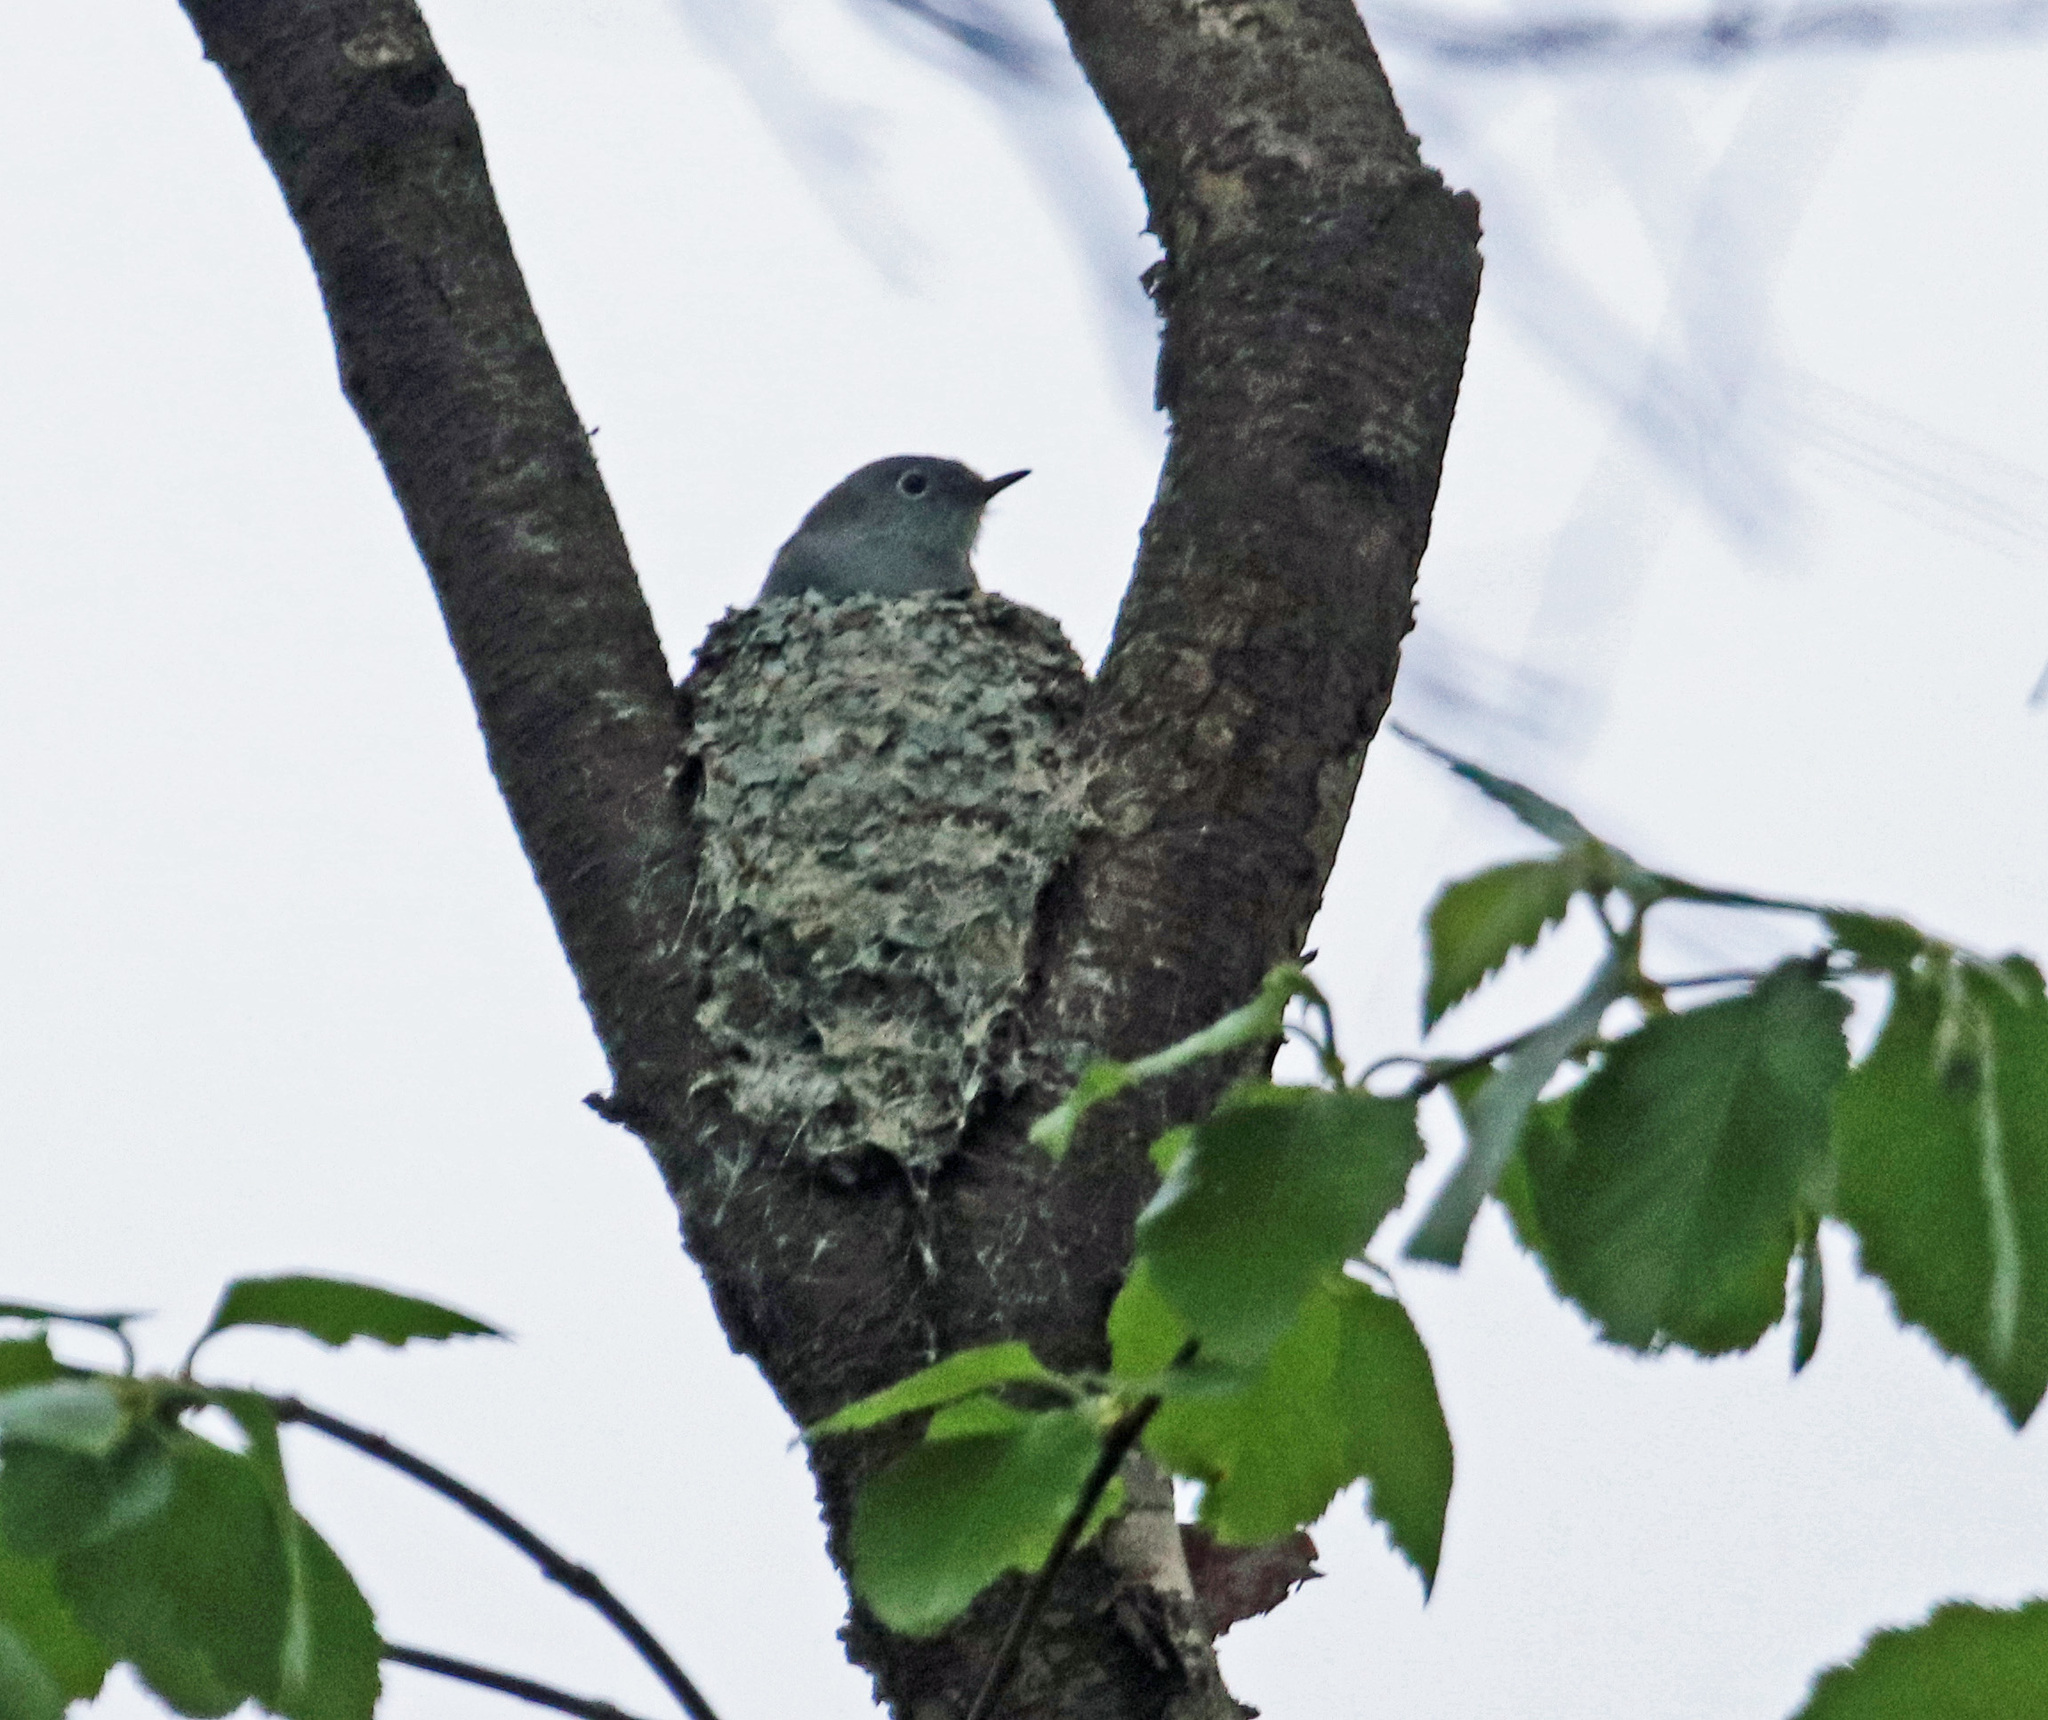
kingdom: Animalia
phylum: Chordata
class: Aves
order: Passeriformes
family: Polioptilidae
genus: Polioptila
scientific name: Polioptila caerulea
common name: Blue-gray gnatcatcher
